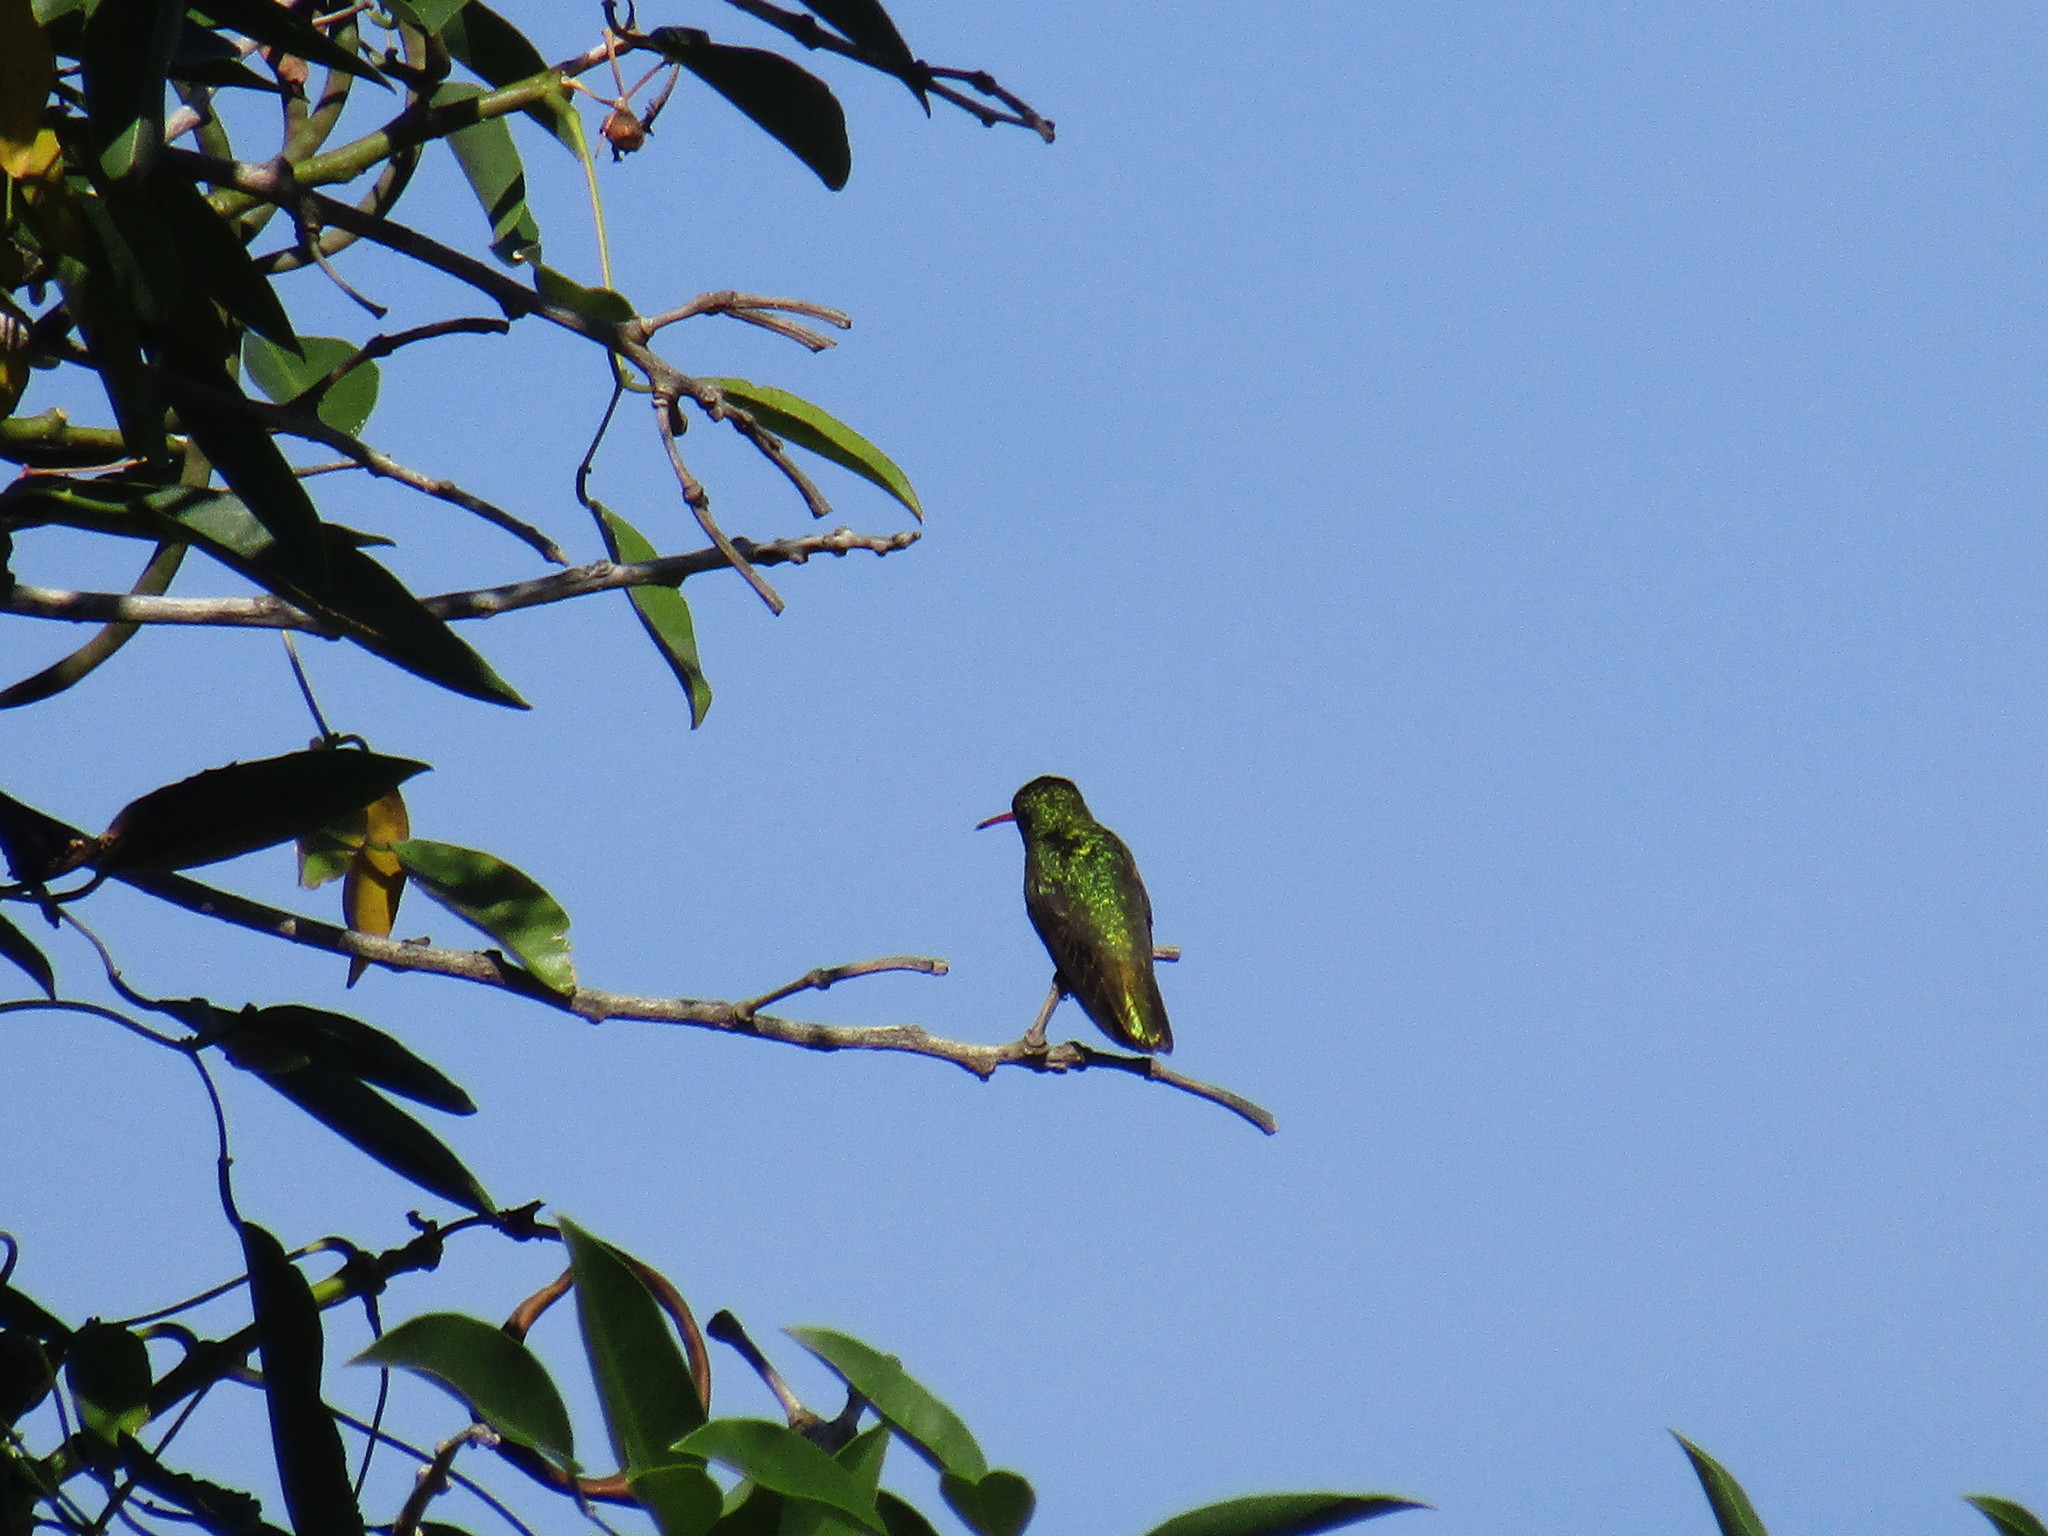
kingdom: Animalia
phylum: Chordata
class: Aves
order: Apodiformes
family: Trochilidae
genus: Hylocharis
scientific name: Hylocharis chrysura
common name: Gilded sapphire
